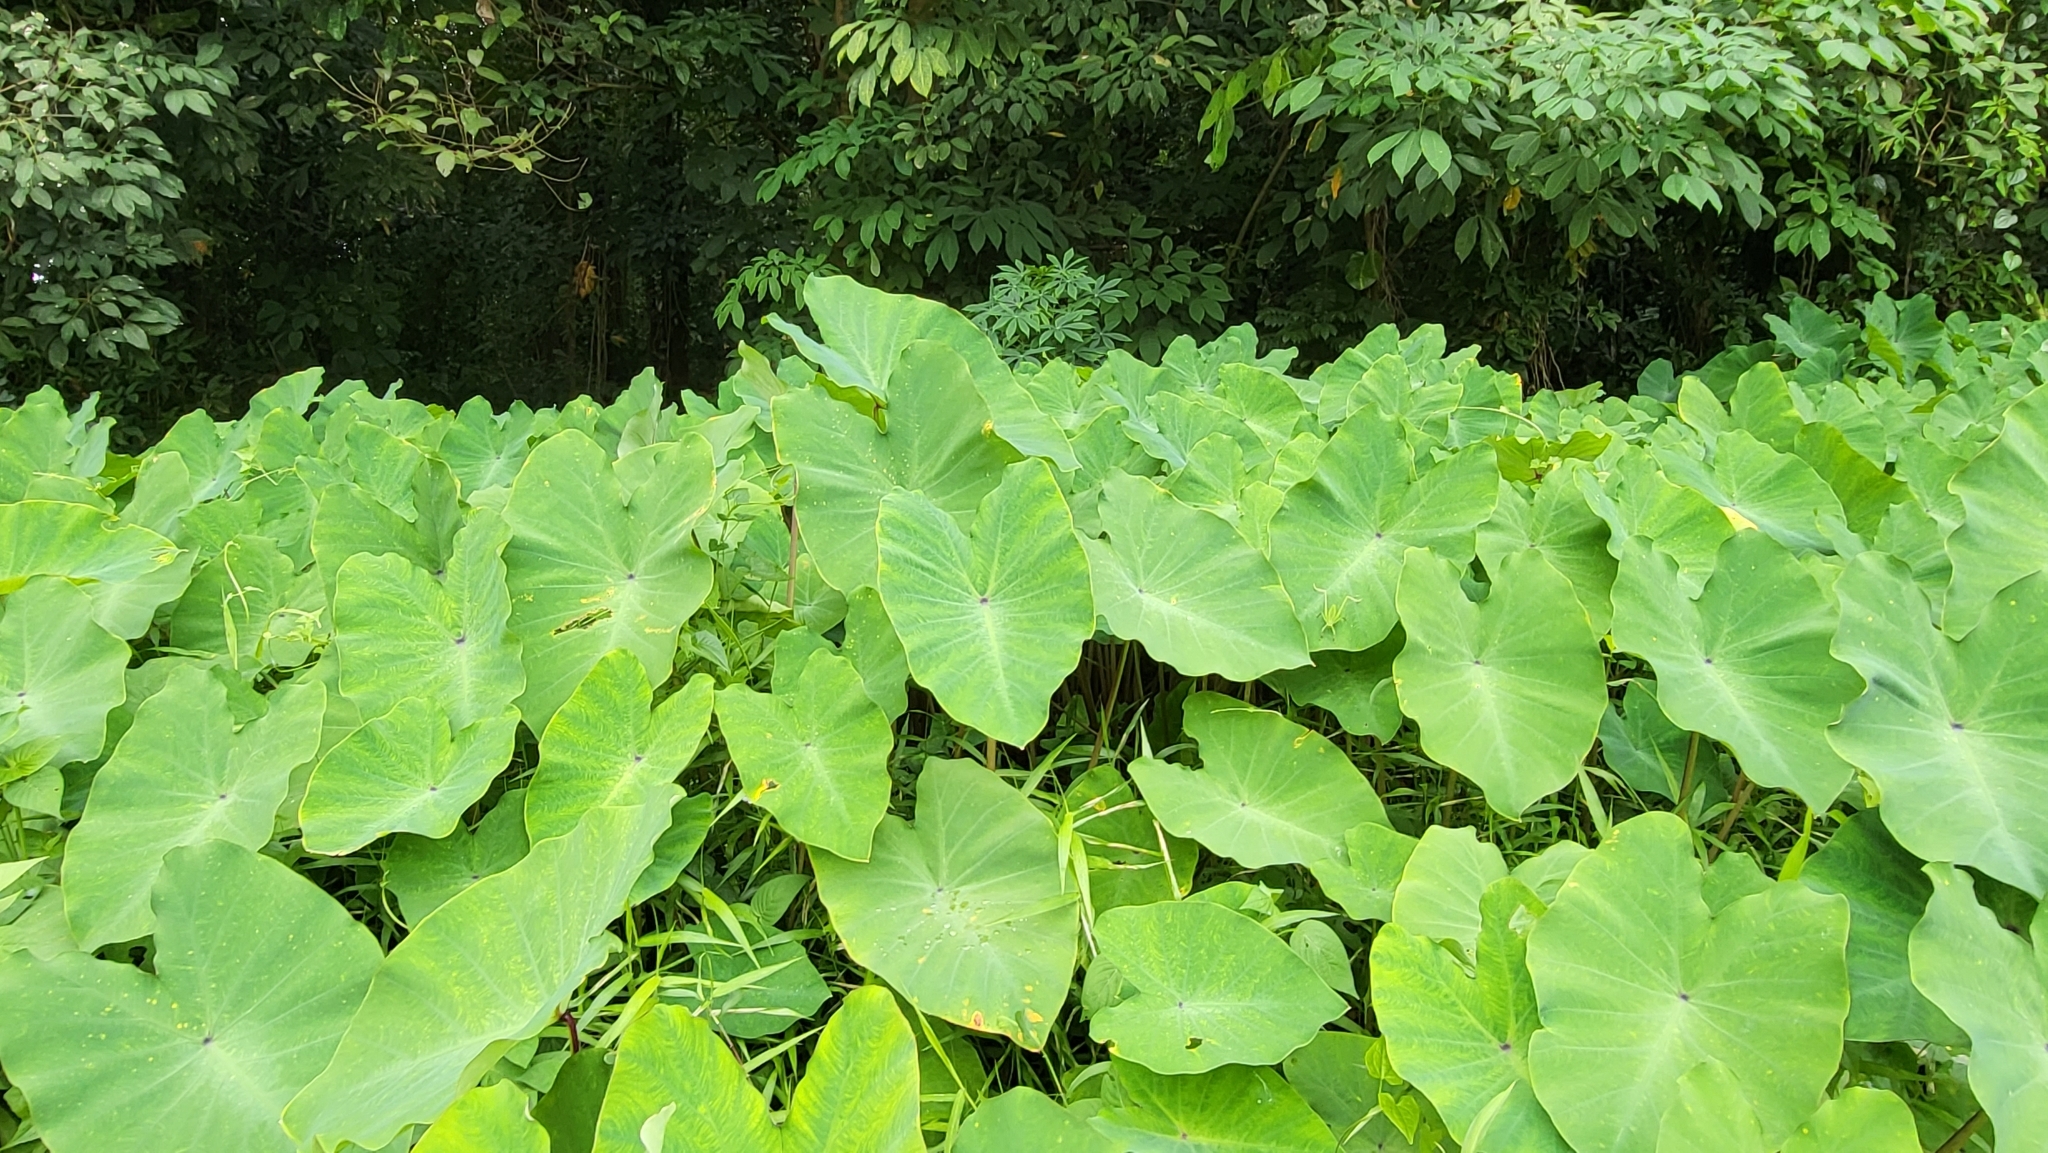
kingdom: Plantae
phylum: Tracheophyta
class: Liliopsida
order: Alismatales
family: Araceae
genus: Colocasia
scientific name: Colocasia esculenta
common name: Taro
